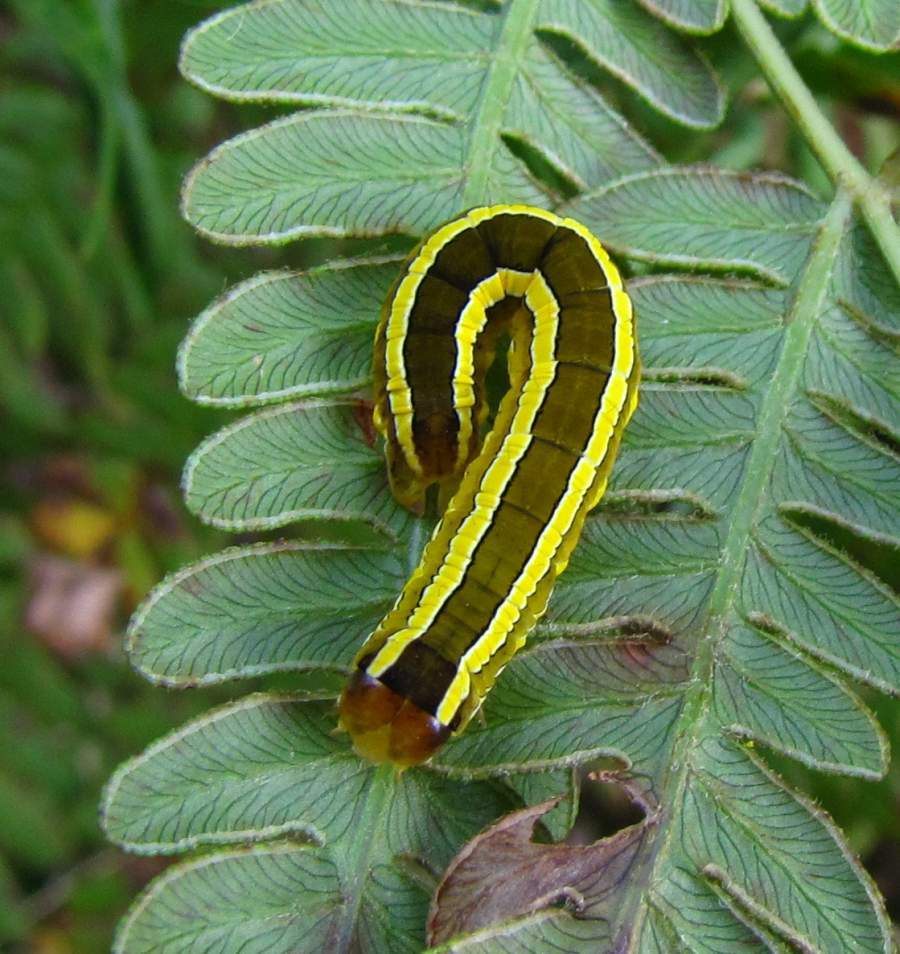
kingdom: Animalia
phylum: Arthropoda
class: Insecta
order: Lepidoptera
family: Noctuidae
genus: Melanchra
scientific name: Melanchra assimilis
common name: Black arches
